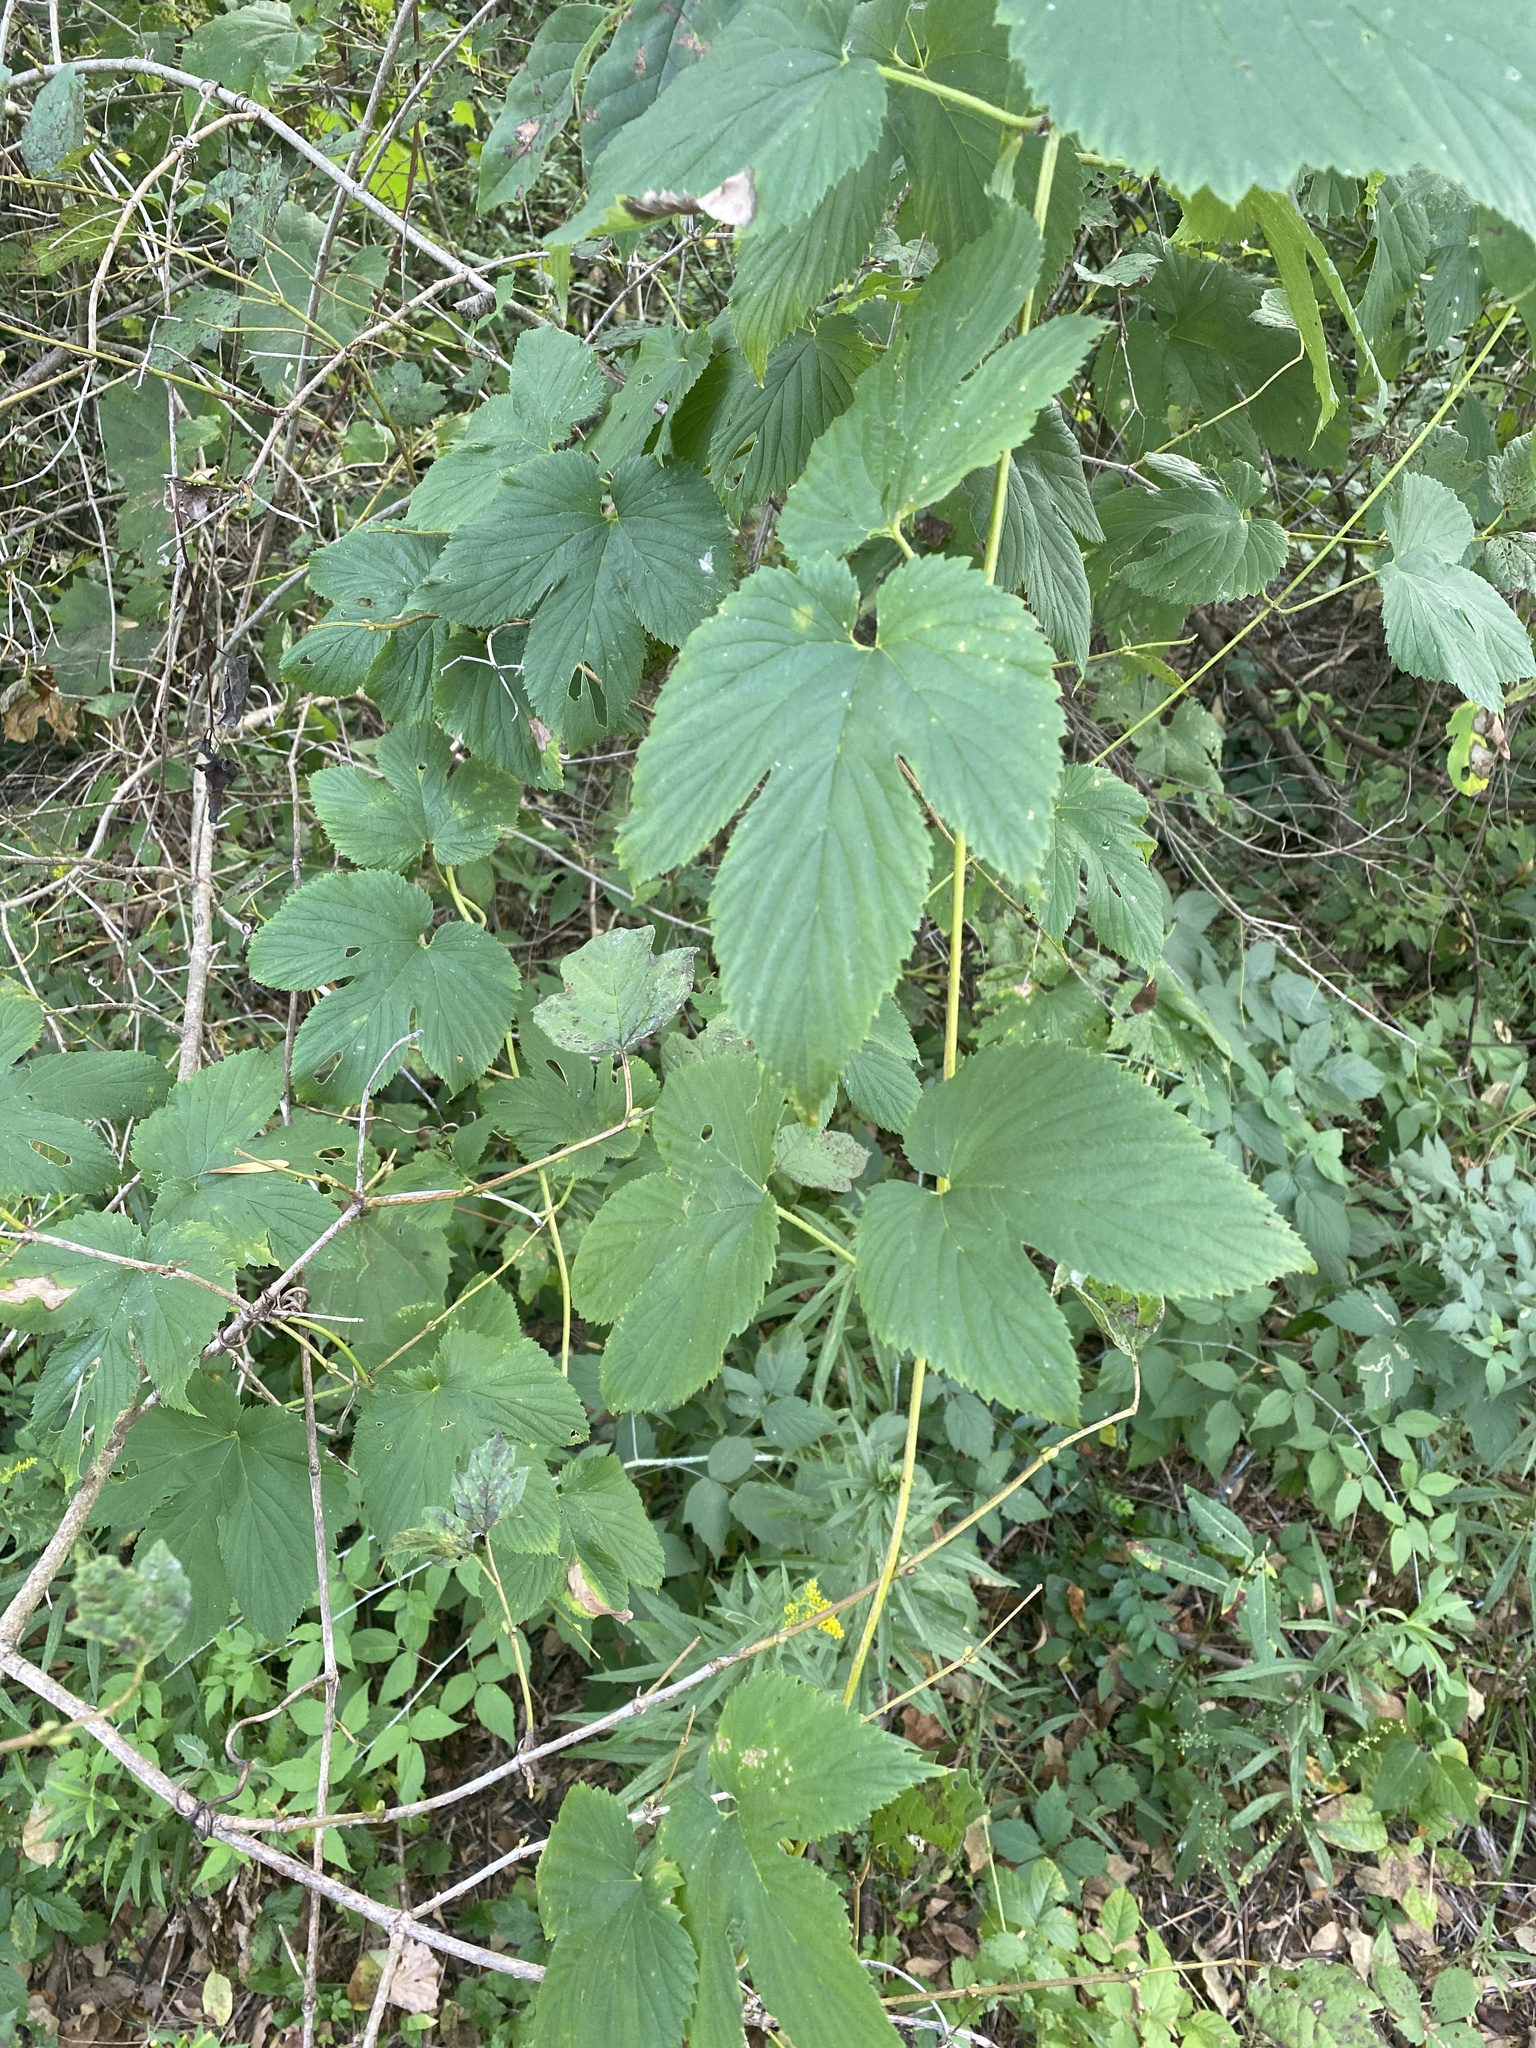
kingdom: Plantae
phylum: Tracheophyta
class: Magnoliopsida
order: Rosales
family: Cannabaceae
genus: Humulus
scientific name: Humulus lupulus
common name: Hop
